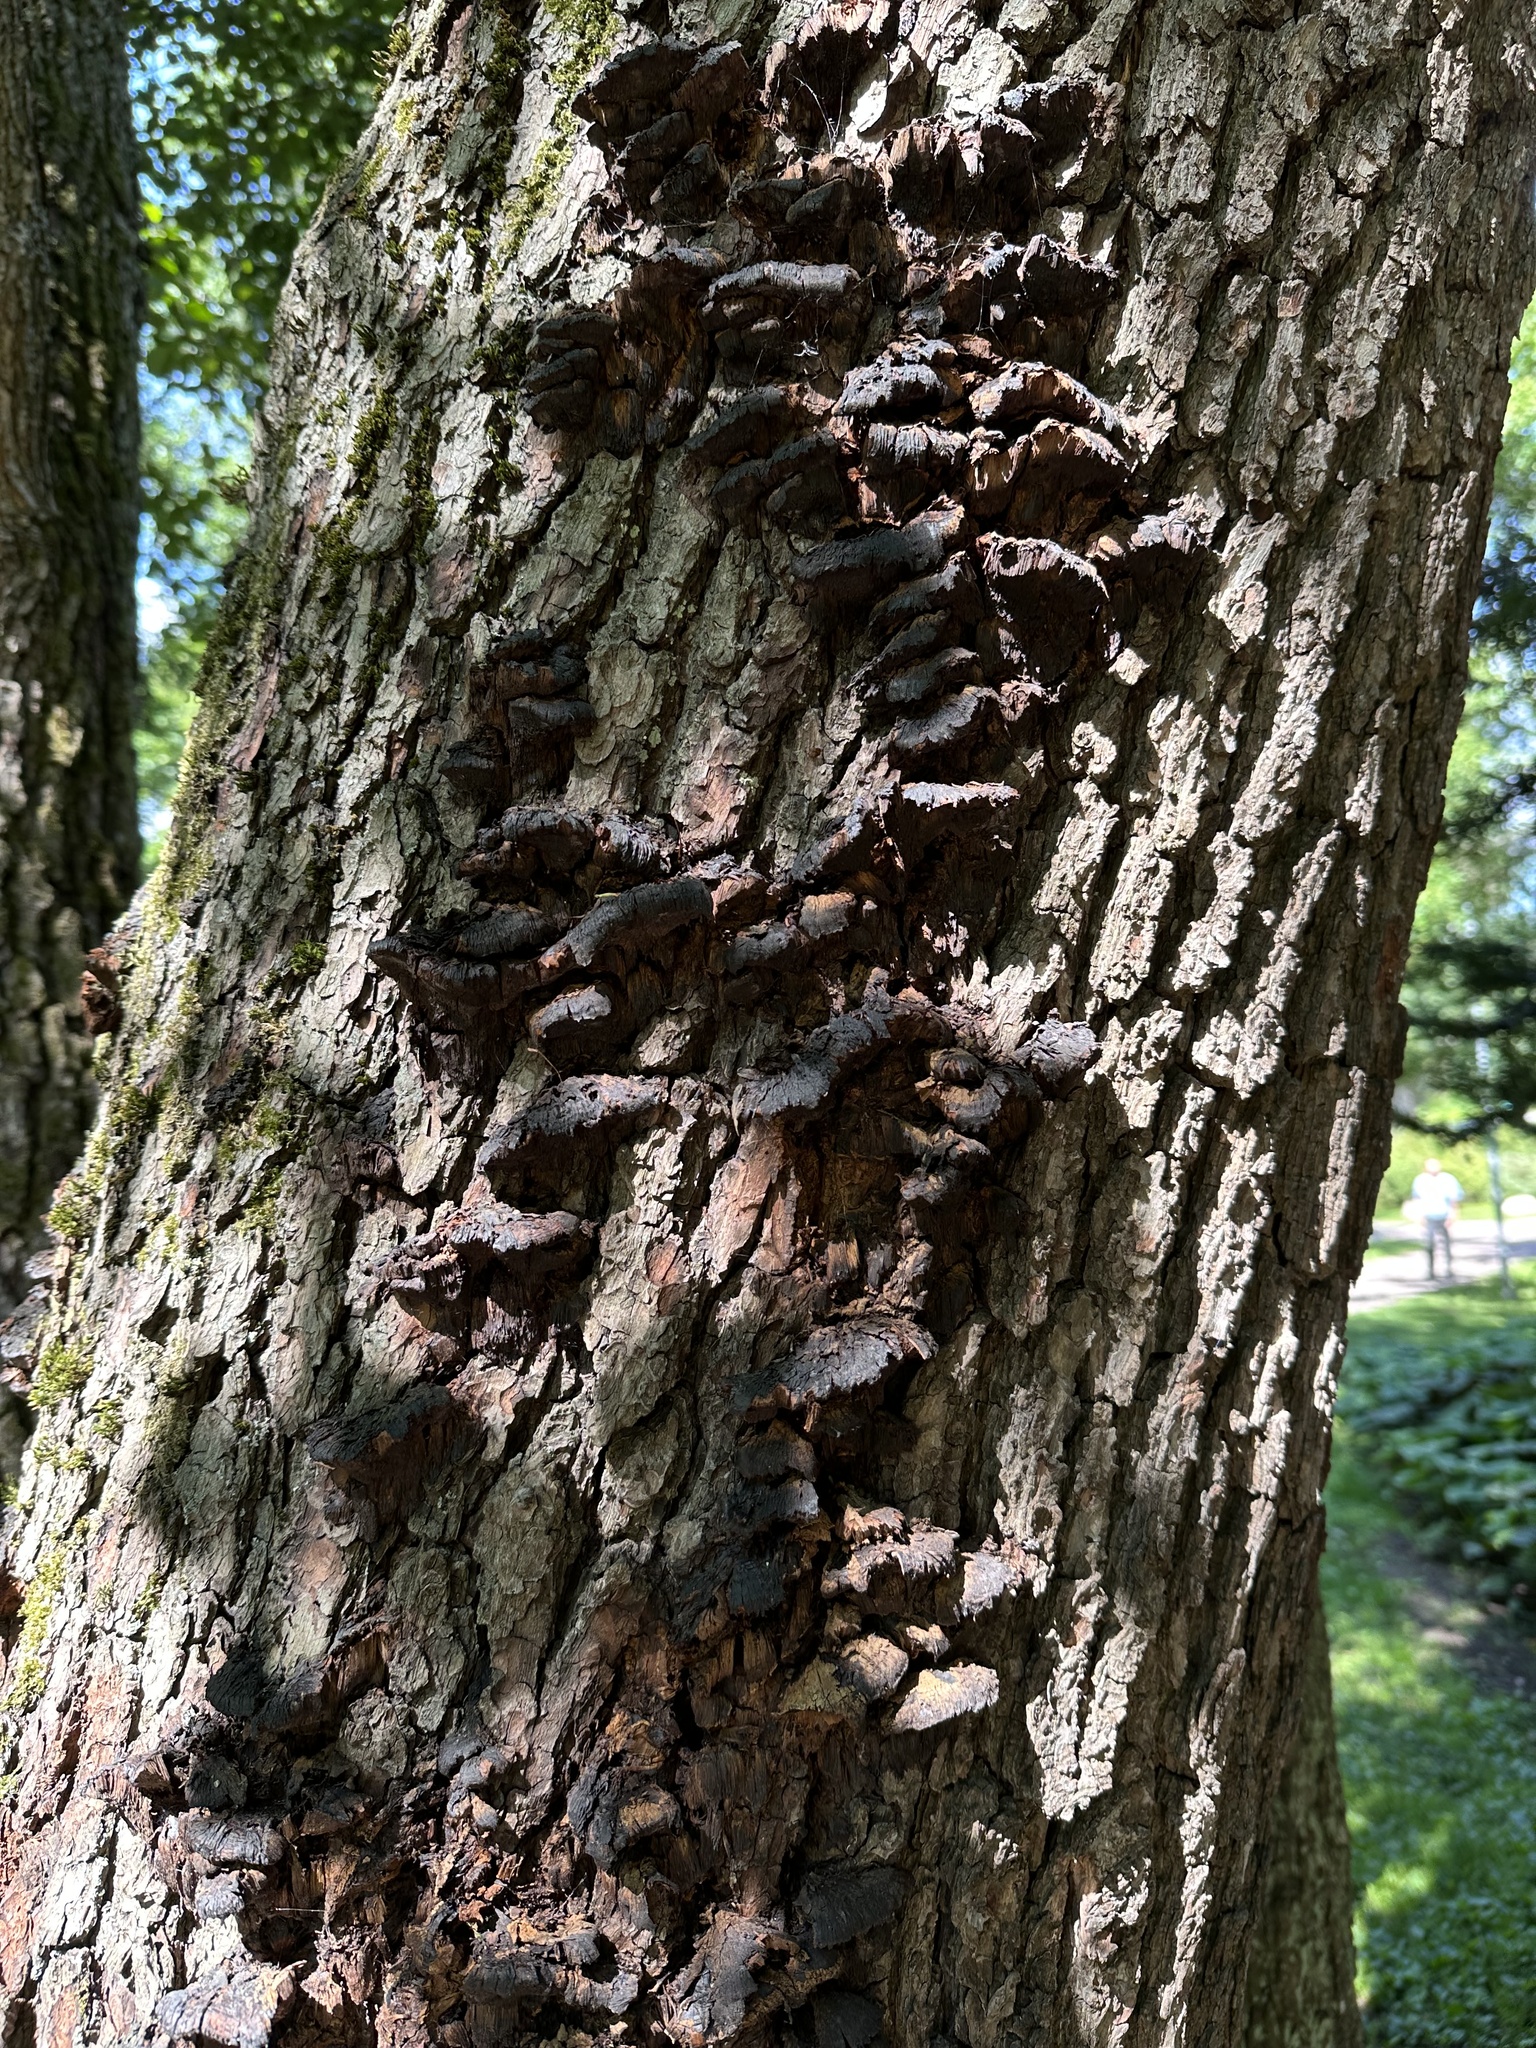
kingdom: Fungi
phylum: Basidiomycota
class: Agaricomycetes
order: Hymenochaetales
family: Hymenochaetaceae
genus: Xanthoporia
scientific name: Xanthoporia radiata
